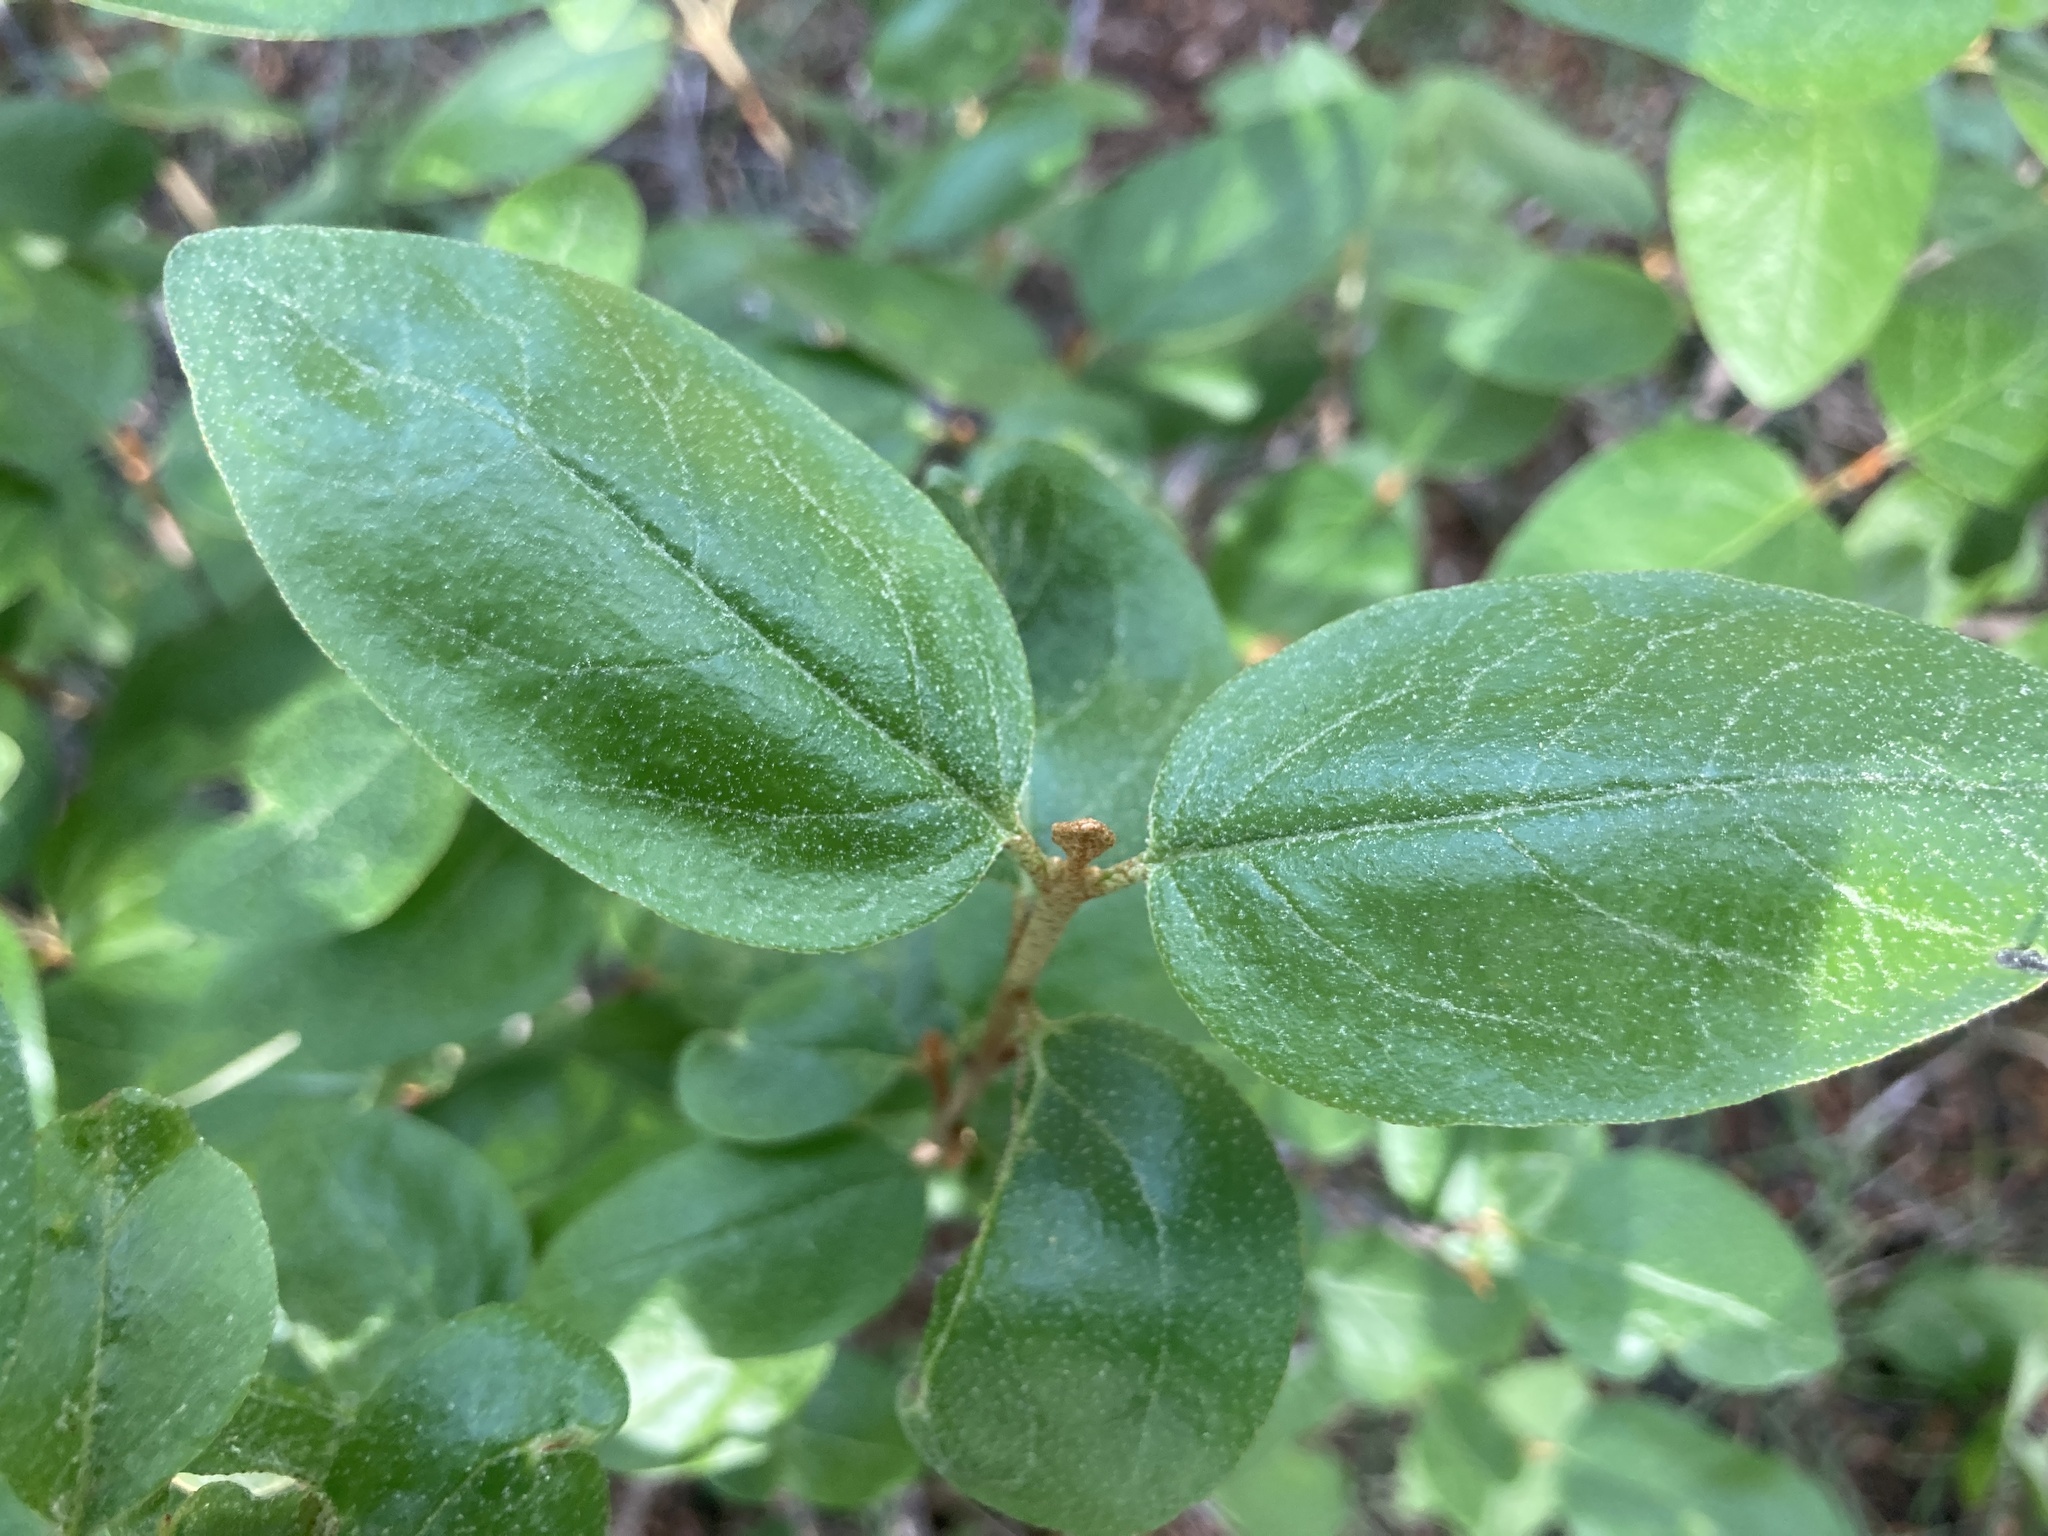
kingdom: Plantae
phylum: Tracheophyta
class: Magnoliopsida
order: Rosales
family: Elaeagnaceae
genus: Shepherdia
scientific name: Shepherdia canadensis
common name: Soapberry
